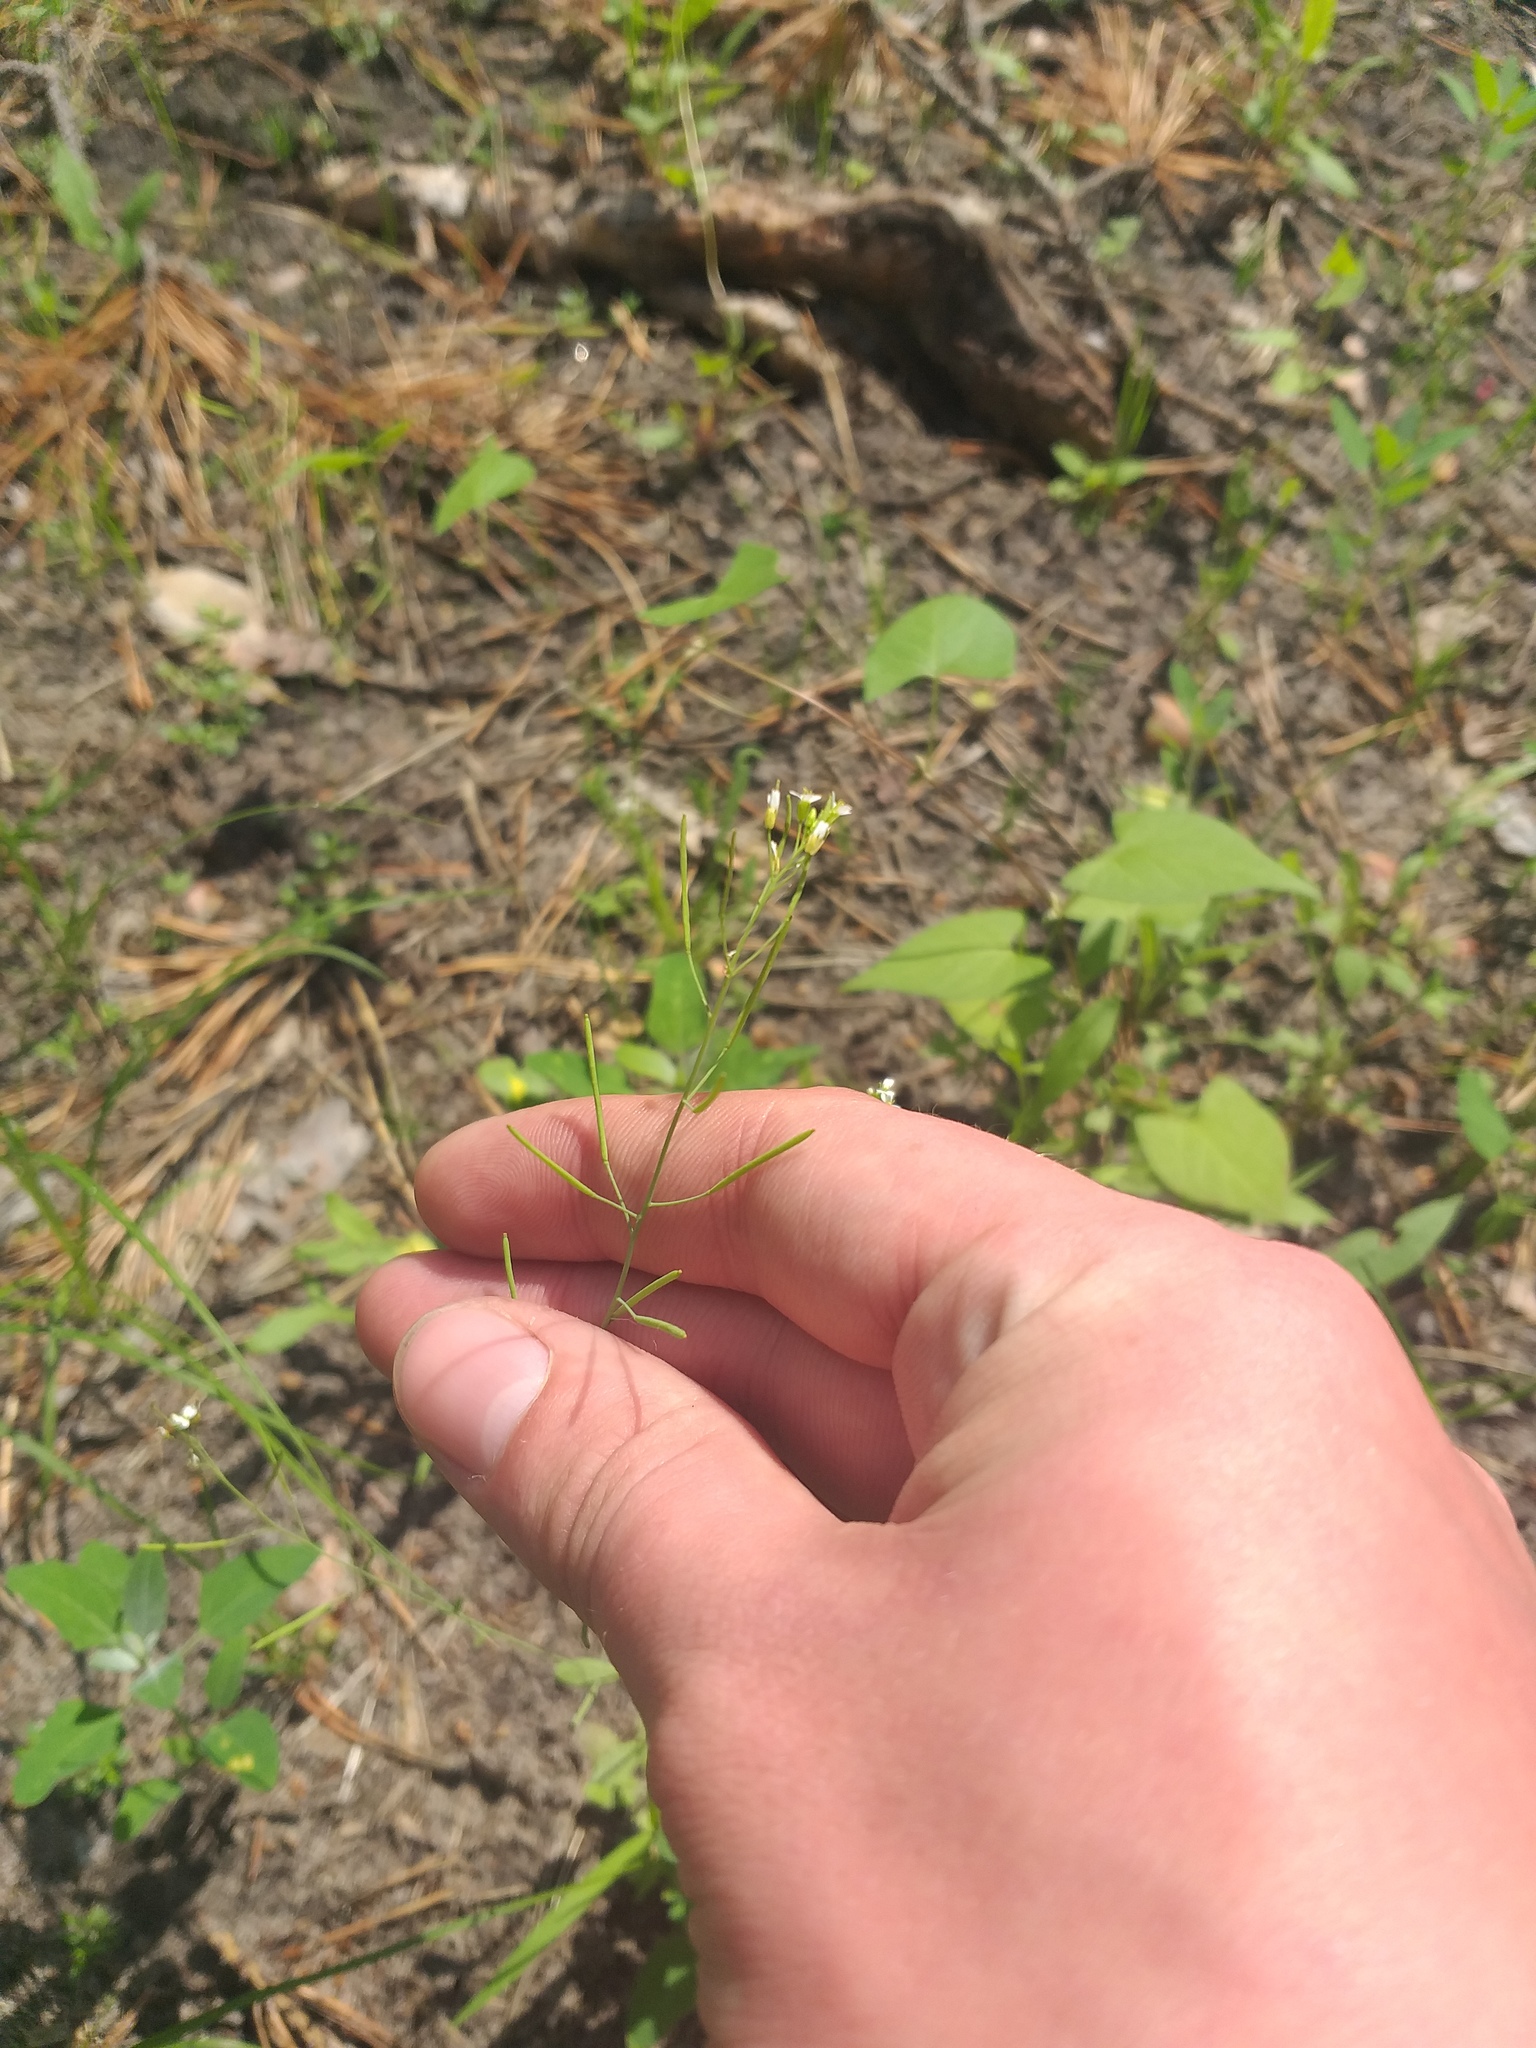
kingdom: Plantae
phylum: Tracheophyta
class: Magnoliopsida
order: Brassicales
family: Brassicaceae
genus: Arabidopsis
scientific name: Arabidopsis thaliana
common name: Thale cress
